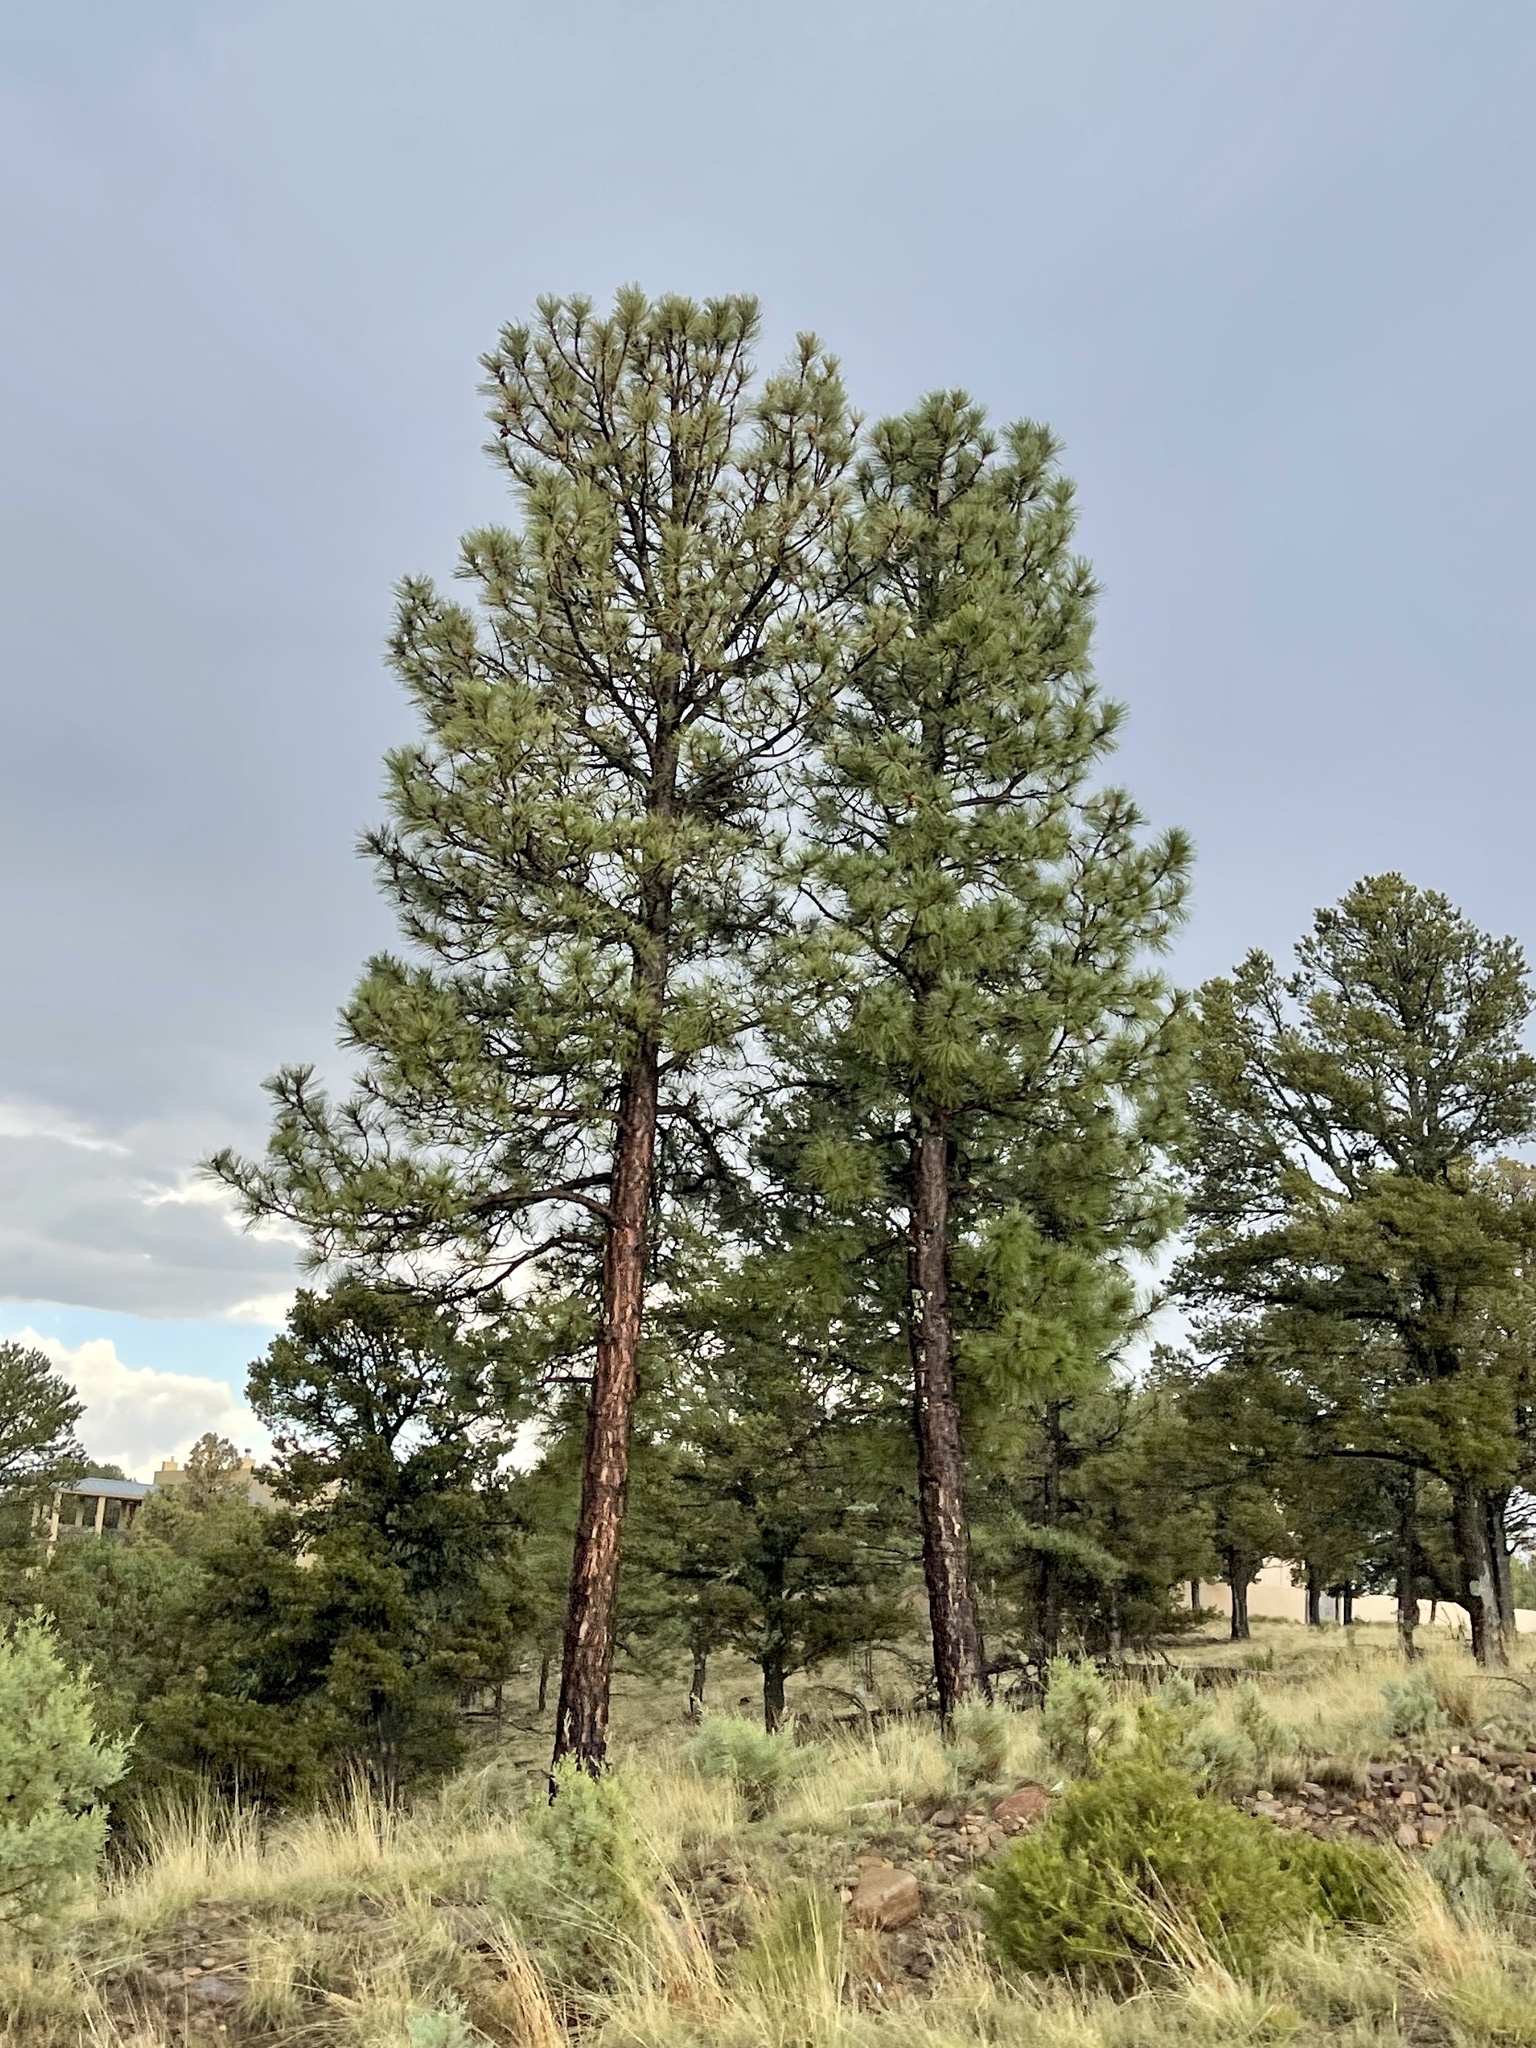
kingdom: Plantae
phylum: Tracheophyta
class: Pinopsida
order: Pinales
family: Pinaceae
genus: Pinus
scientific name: Pinus ponderosa
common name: Western yellow-pine
